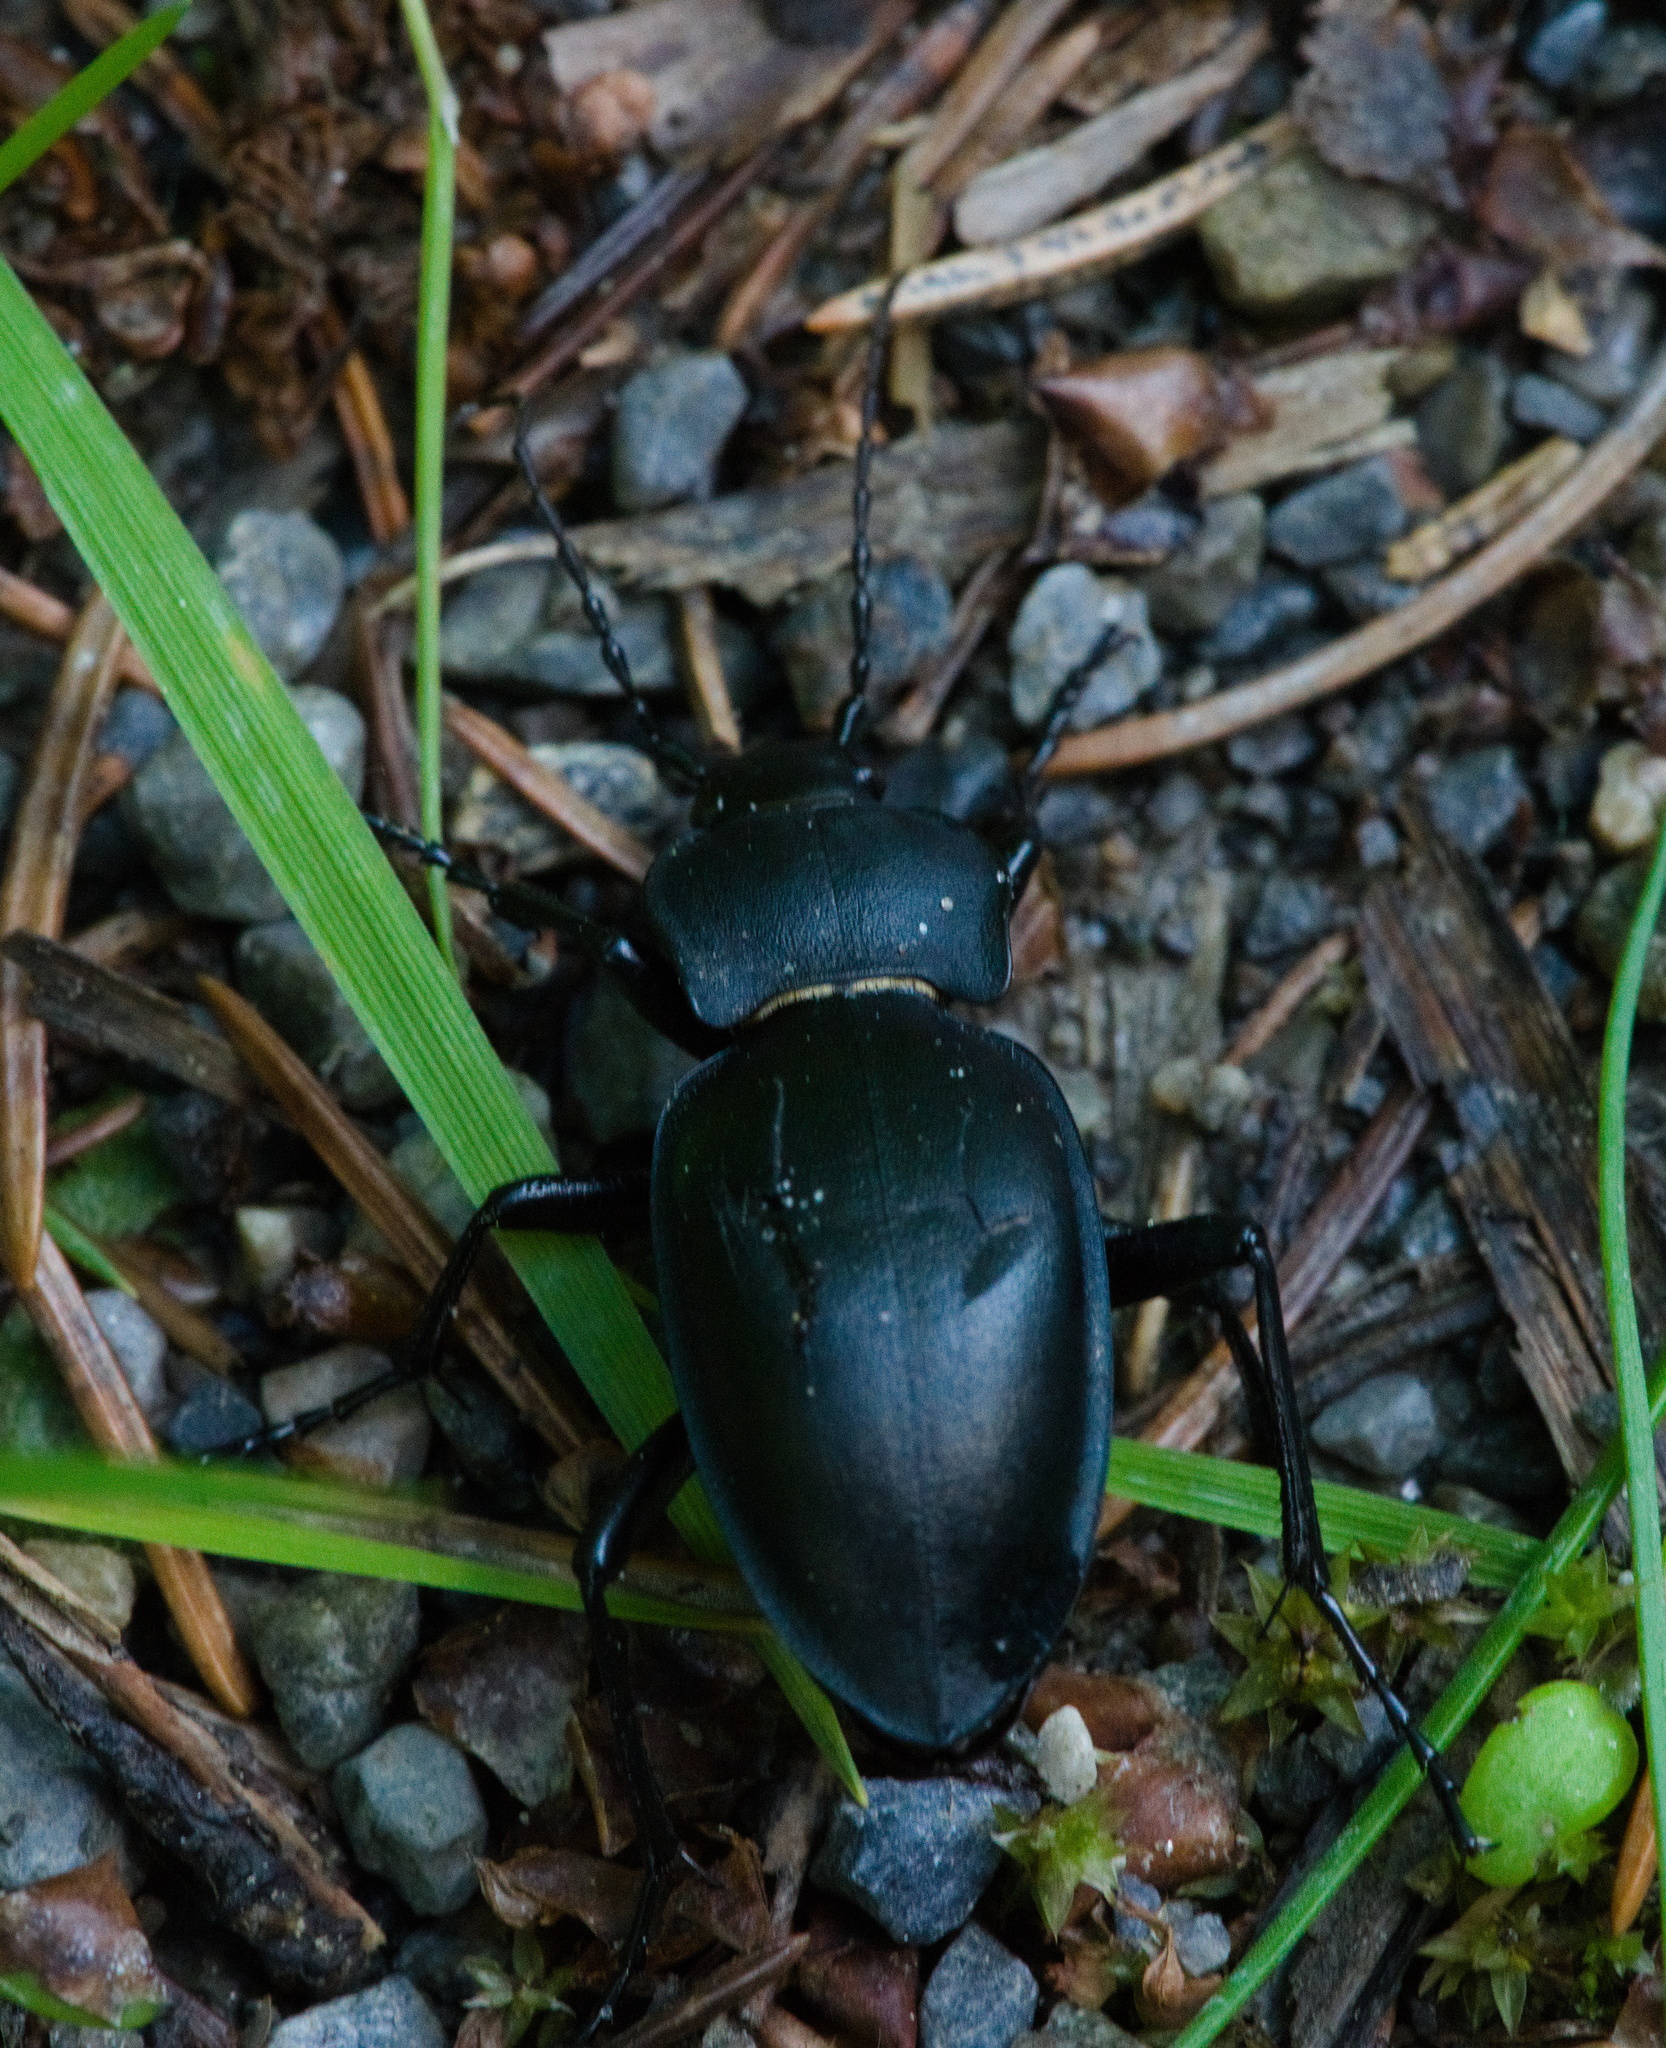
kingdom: Animalia
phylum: Arthropoda
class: Insecta
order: Coleoptera
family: Carabidae
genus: Carabus
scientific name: Carabus glabratus
